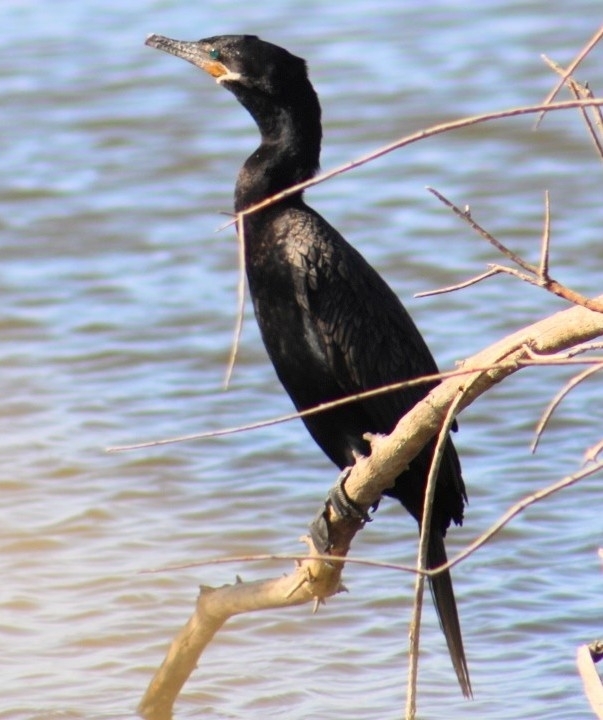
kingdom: Animalia
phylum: Chordata
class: Aves
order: Suliformes
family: Phalacrocoracidae
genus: Phalacrocorax
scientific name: Phalacrocorax brasilianus
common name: Neotropic cormorant
